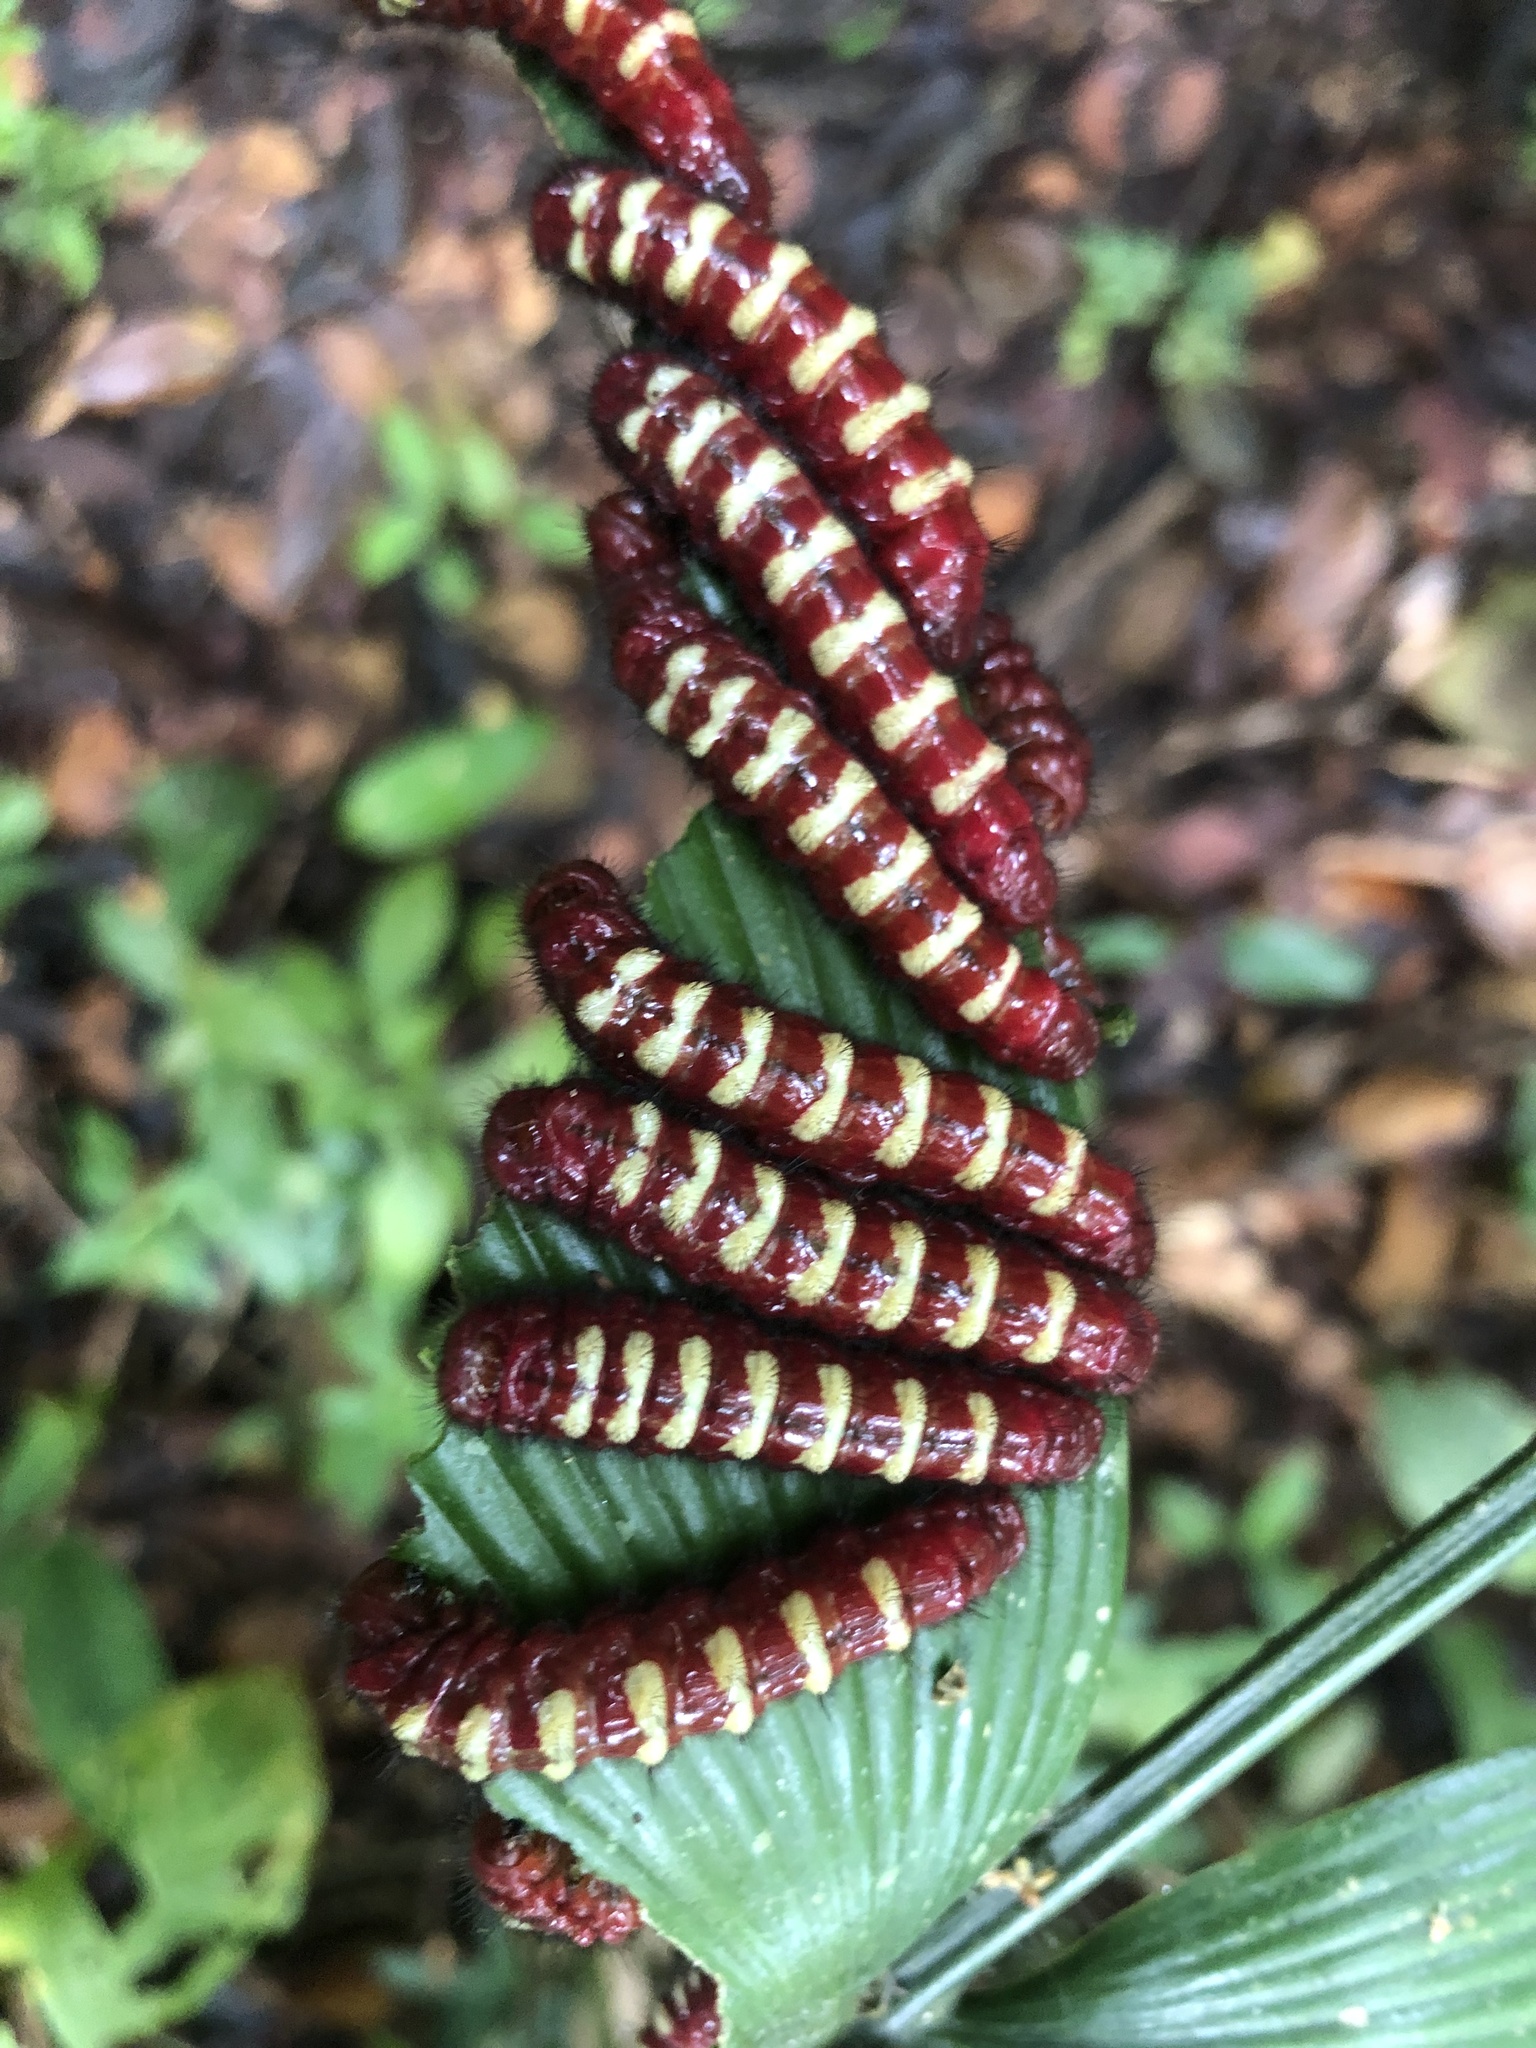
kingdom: Animalia
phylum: Arthropoda
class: Insecta
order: Lepidoptera
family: Lycaenidae
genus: Eumaeus
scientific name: Eumaeus godartii
